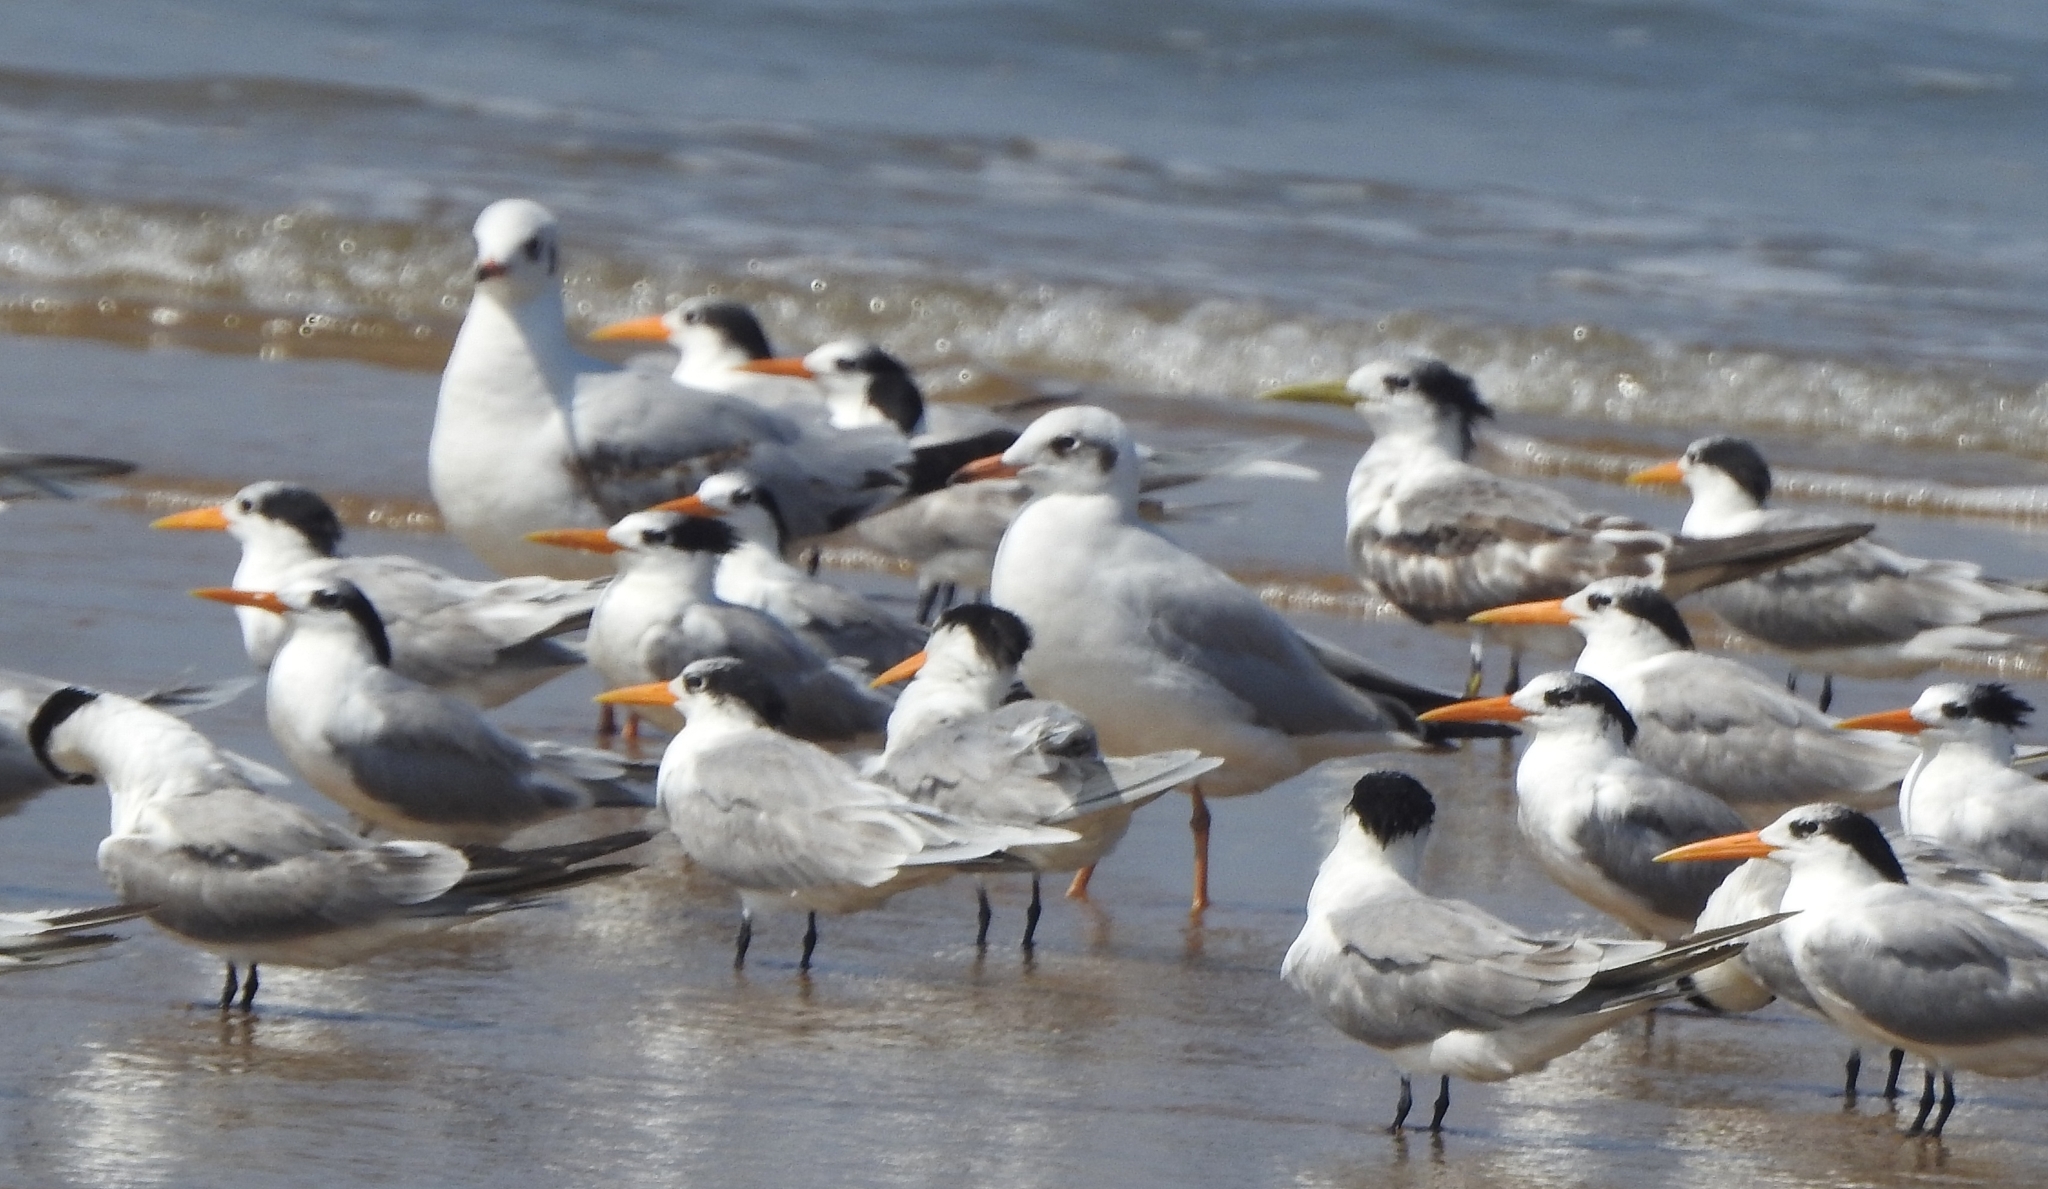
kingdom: Animalia
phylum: Chordata
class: Aves
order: Charadriiformes
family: Laridae
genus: Chroicocephalus
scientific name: Chroicocephalus brunnicephalus
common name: Brown-headed gull
